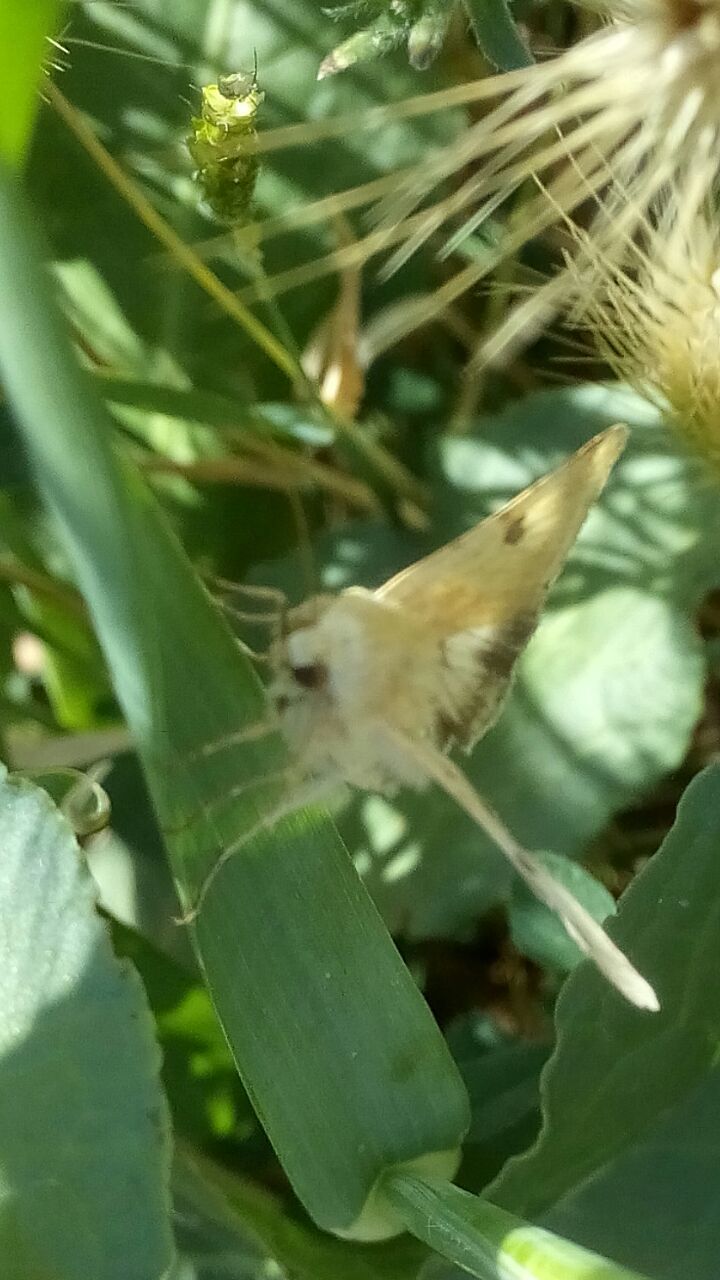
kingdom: Animalia
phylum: Arthropoda
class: Insecta
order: Lepidoptera
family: Noctuidae
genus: Heliothis
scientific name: Heliothis peltigera
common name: Bordered straw
